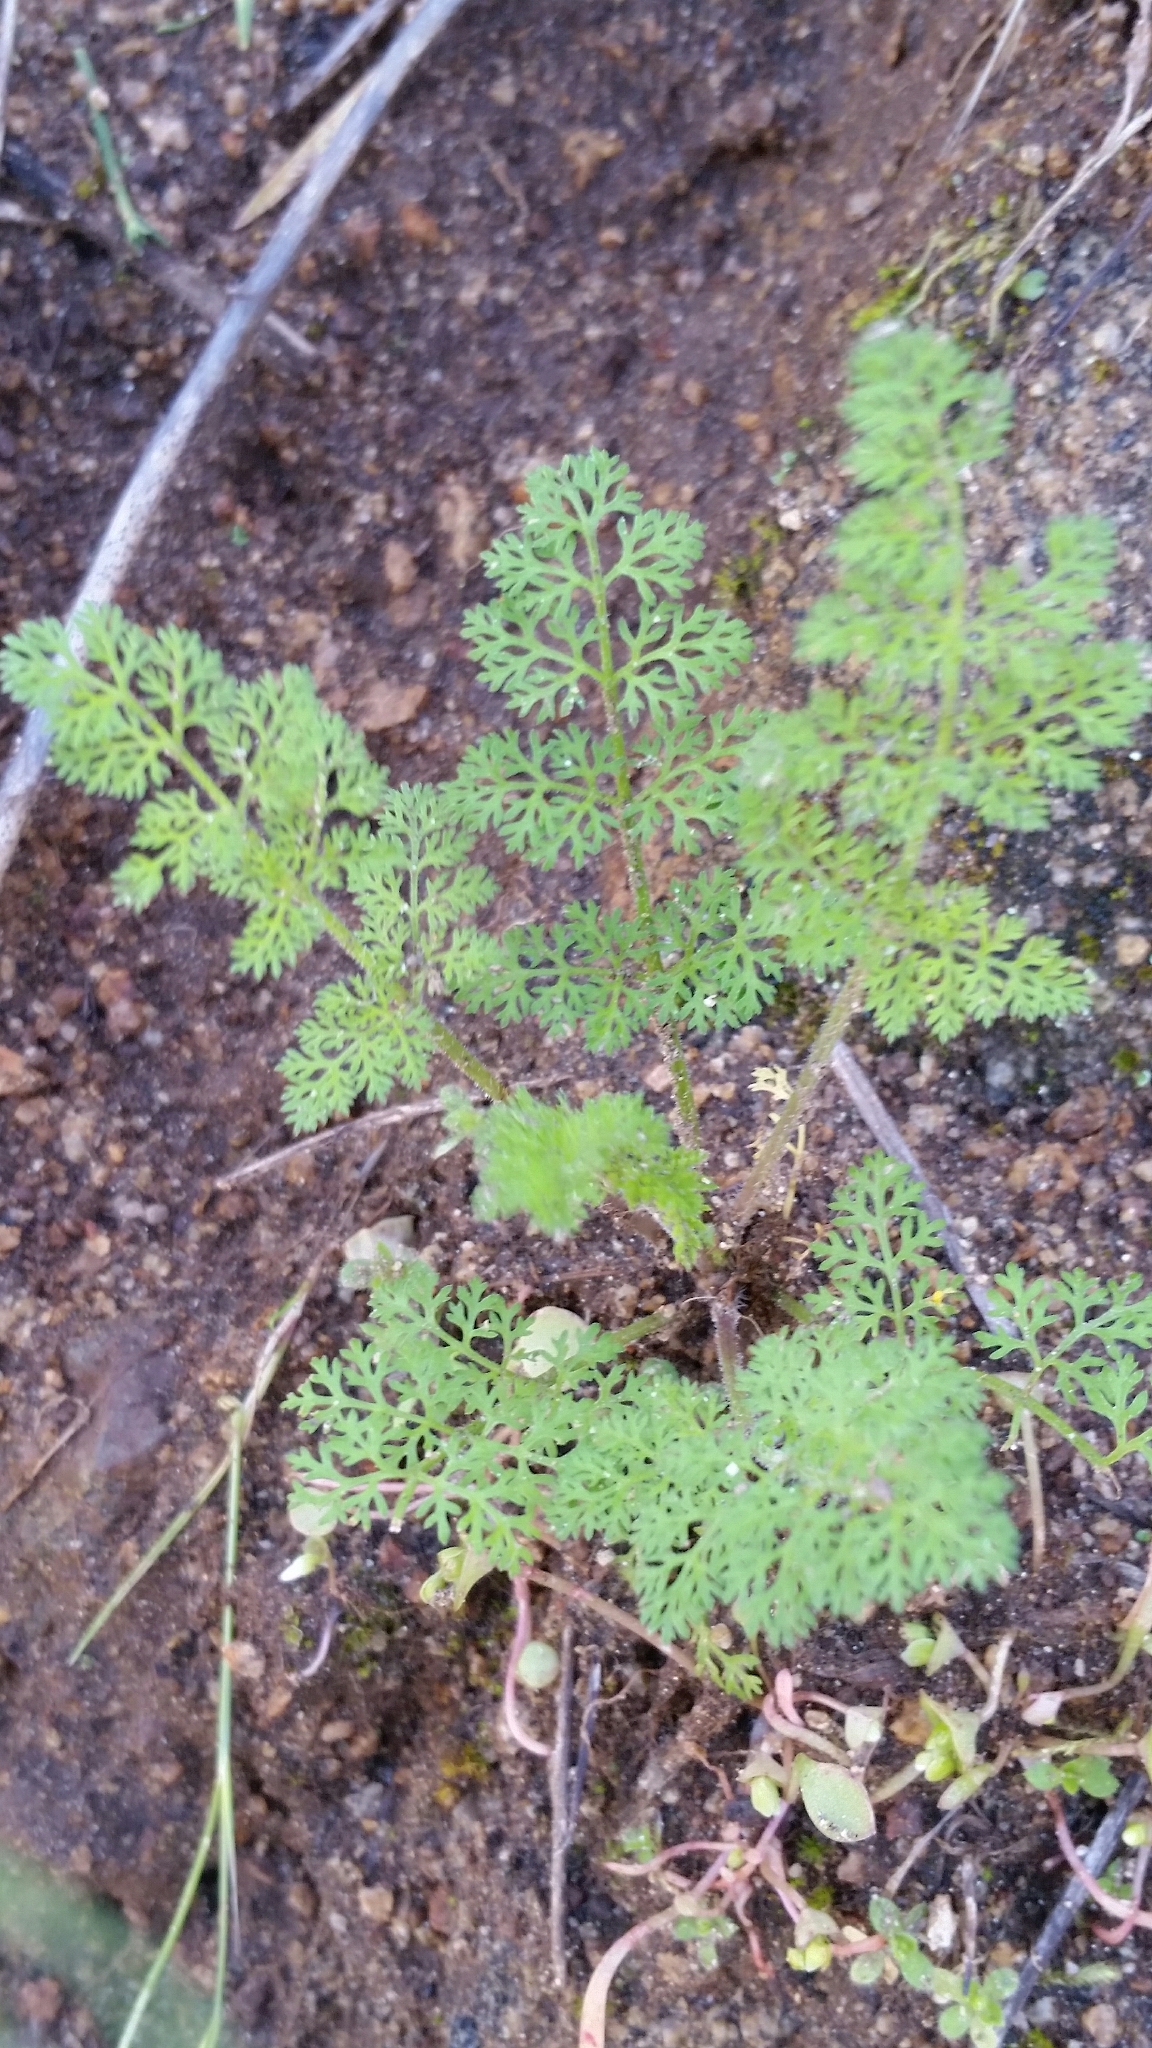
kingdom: Plantae
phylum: Tracheophyta
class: Magnoliopsida
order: Apiales
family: Apiaceae
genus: Daucus
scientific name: Daucus pusillus
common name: Southwest wild carrot
